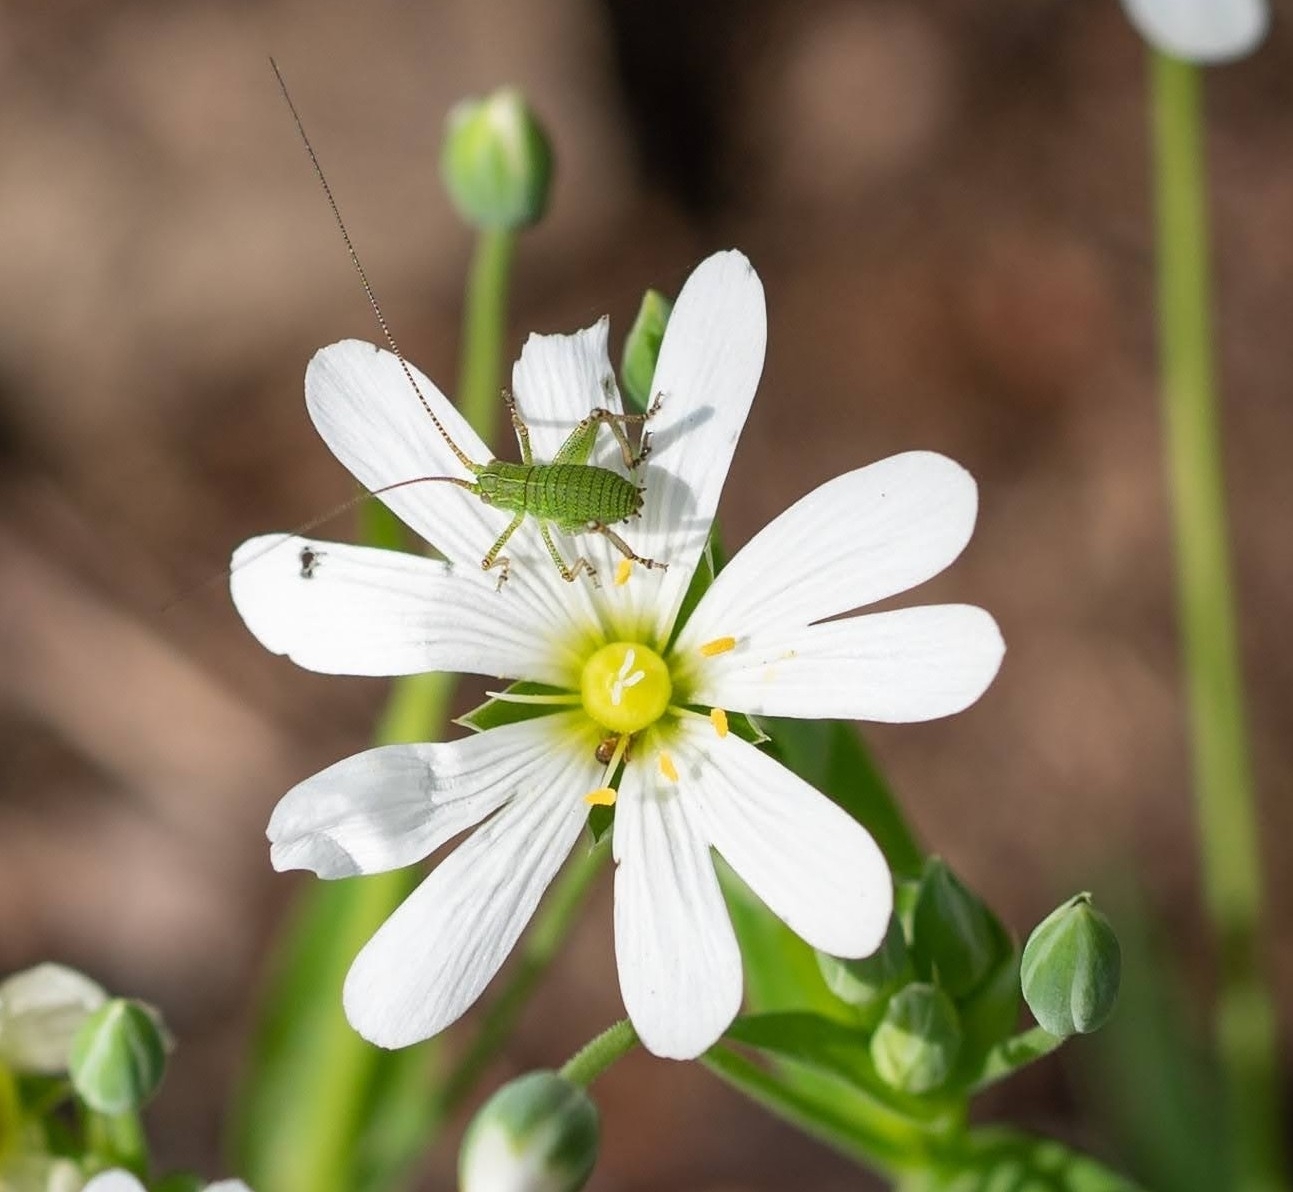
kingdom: Animalia
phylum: Arthropoda
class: Insecta
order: Orthoptera
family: Tettigoniidae
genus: Barbitistes
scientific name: Barbitistes serricauda
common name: Saw-tailed bush-cricket
